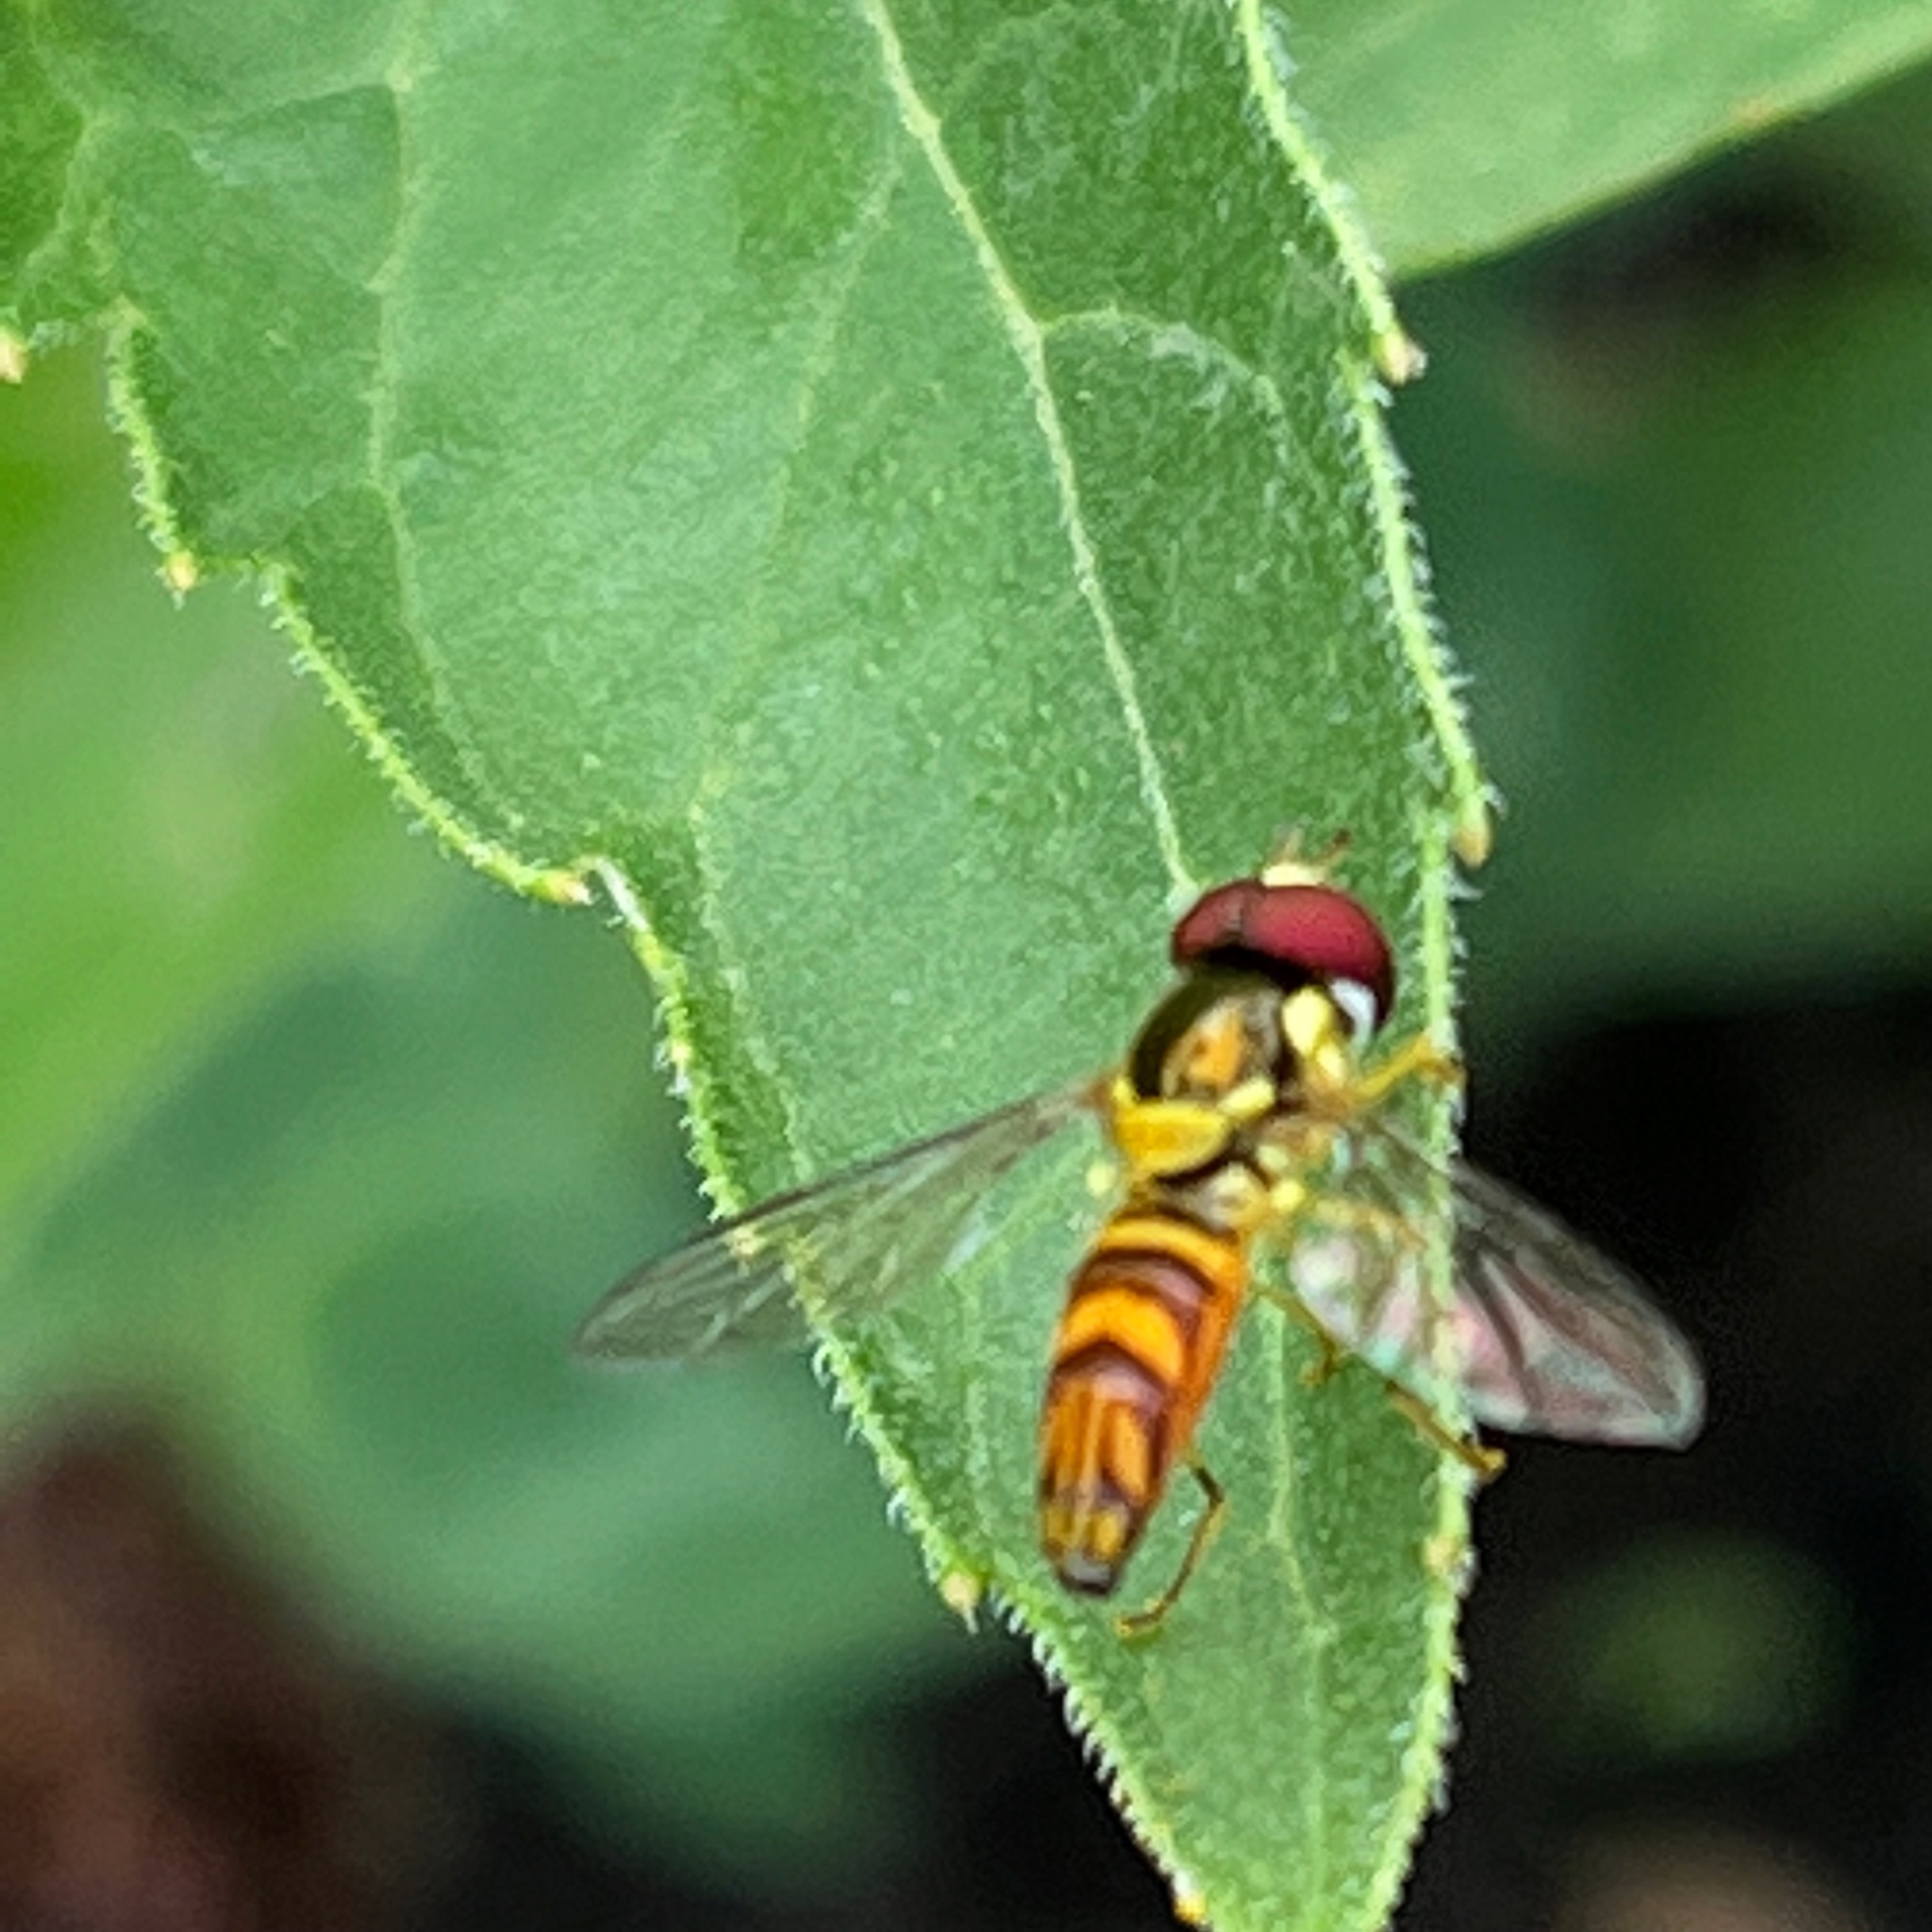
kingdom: Animalia
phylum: Arthropoda
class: Insecta
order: Diptera
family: Syrphidae
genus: Allograpta
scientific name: Allograpta obliqua
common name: Common oblique syrphid
